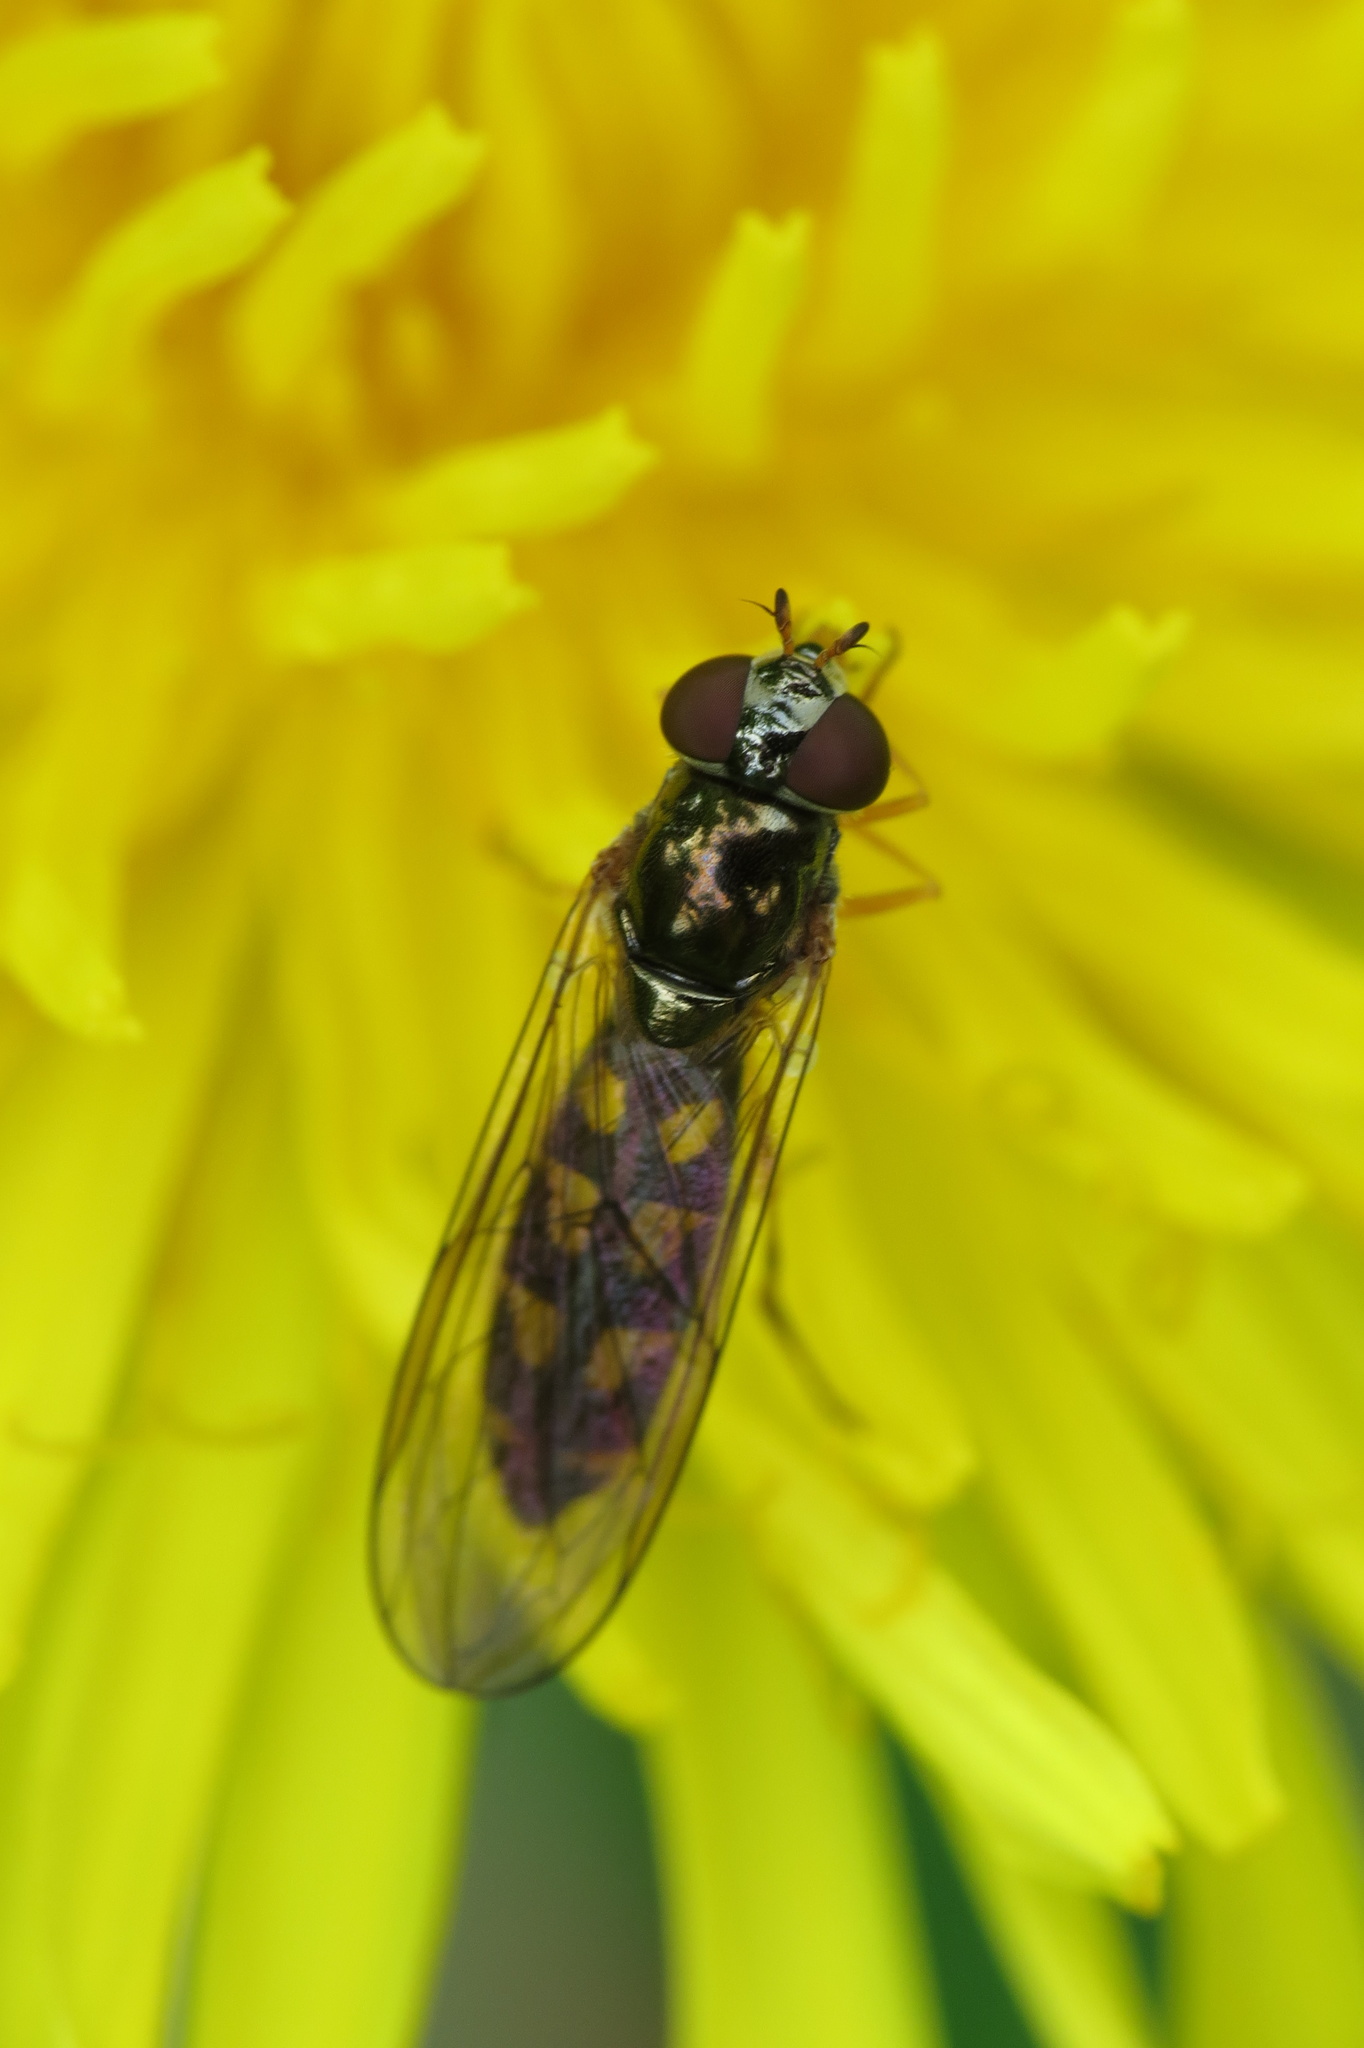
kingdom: Animalia
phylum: Arthropoda
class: Insecta
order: Diptera
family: Syrphidae
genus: Melanostoma
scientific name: Melanostoma scalare
